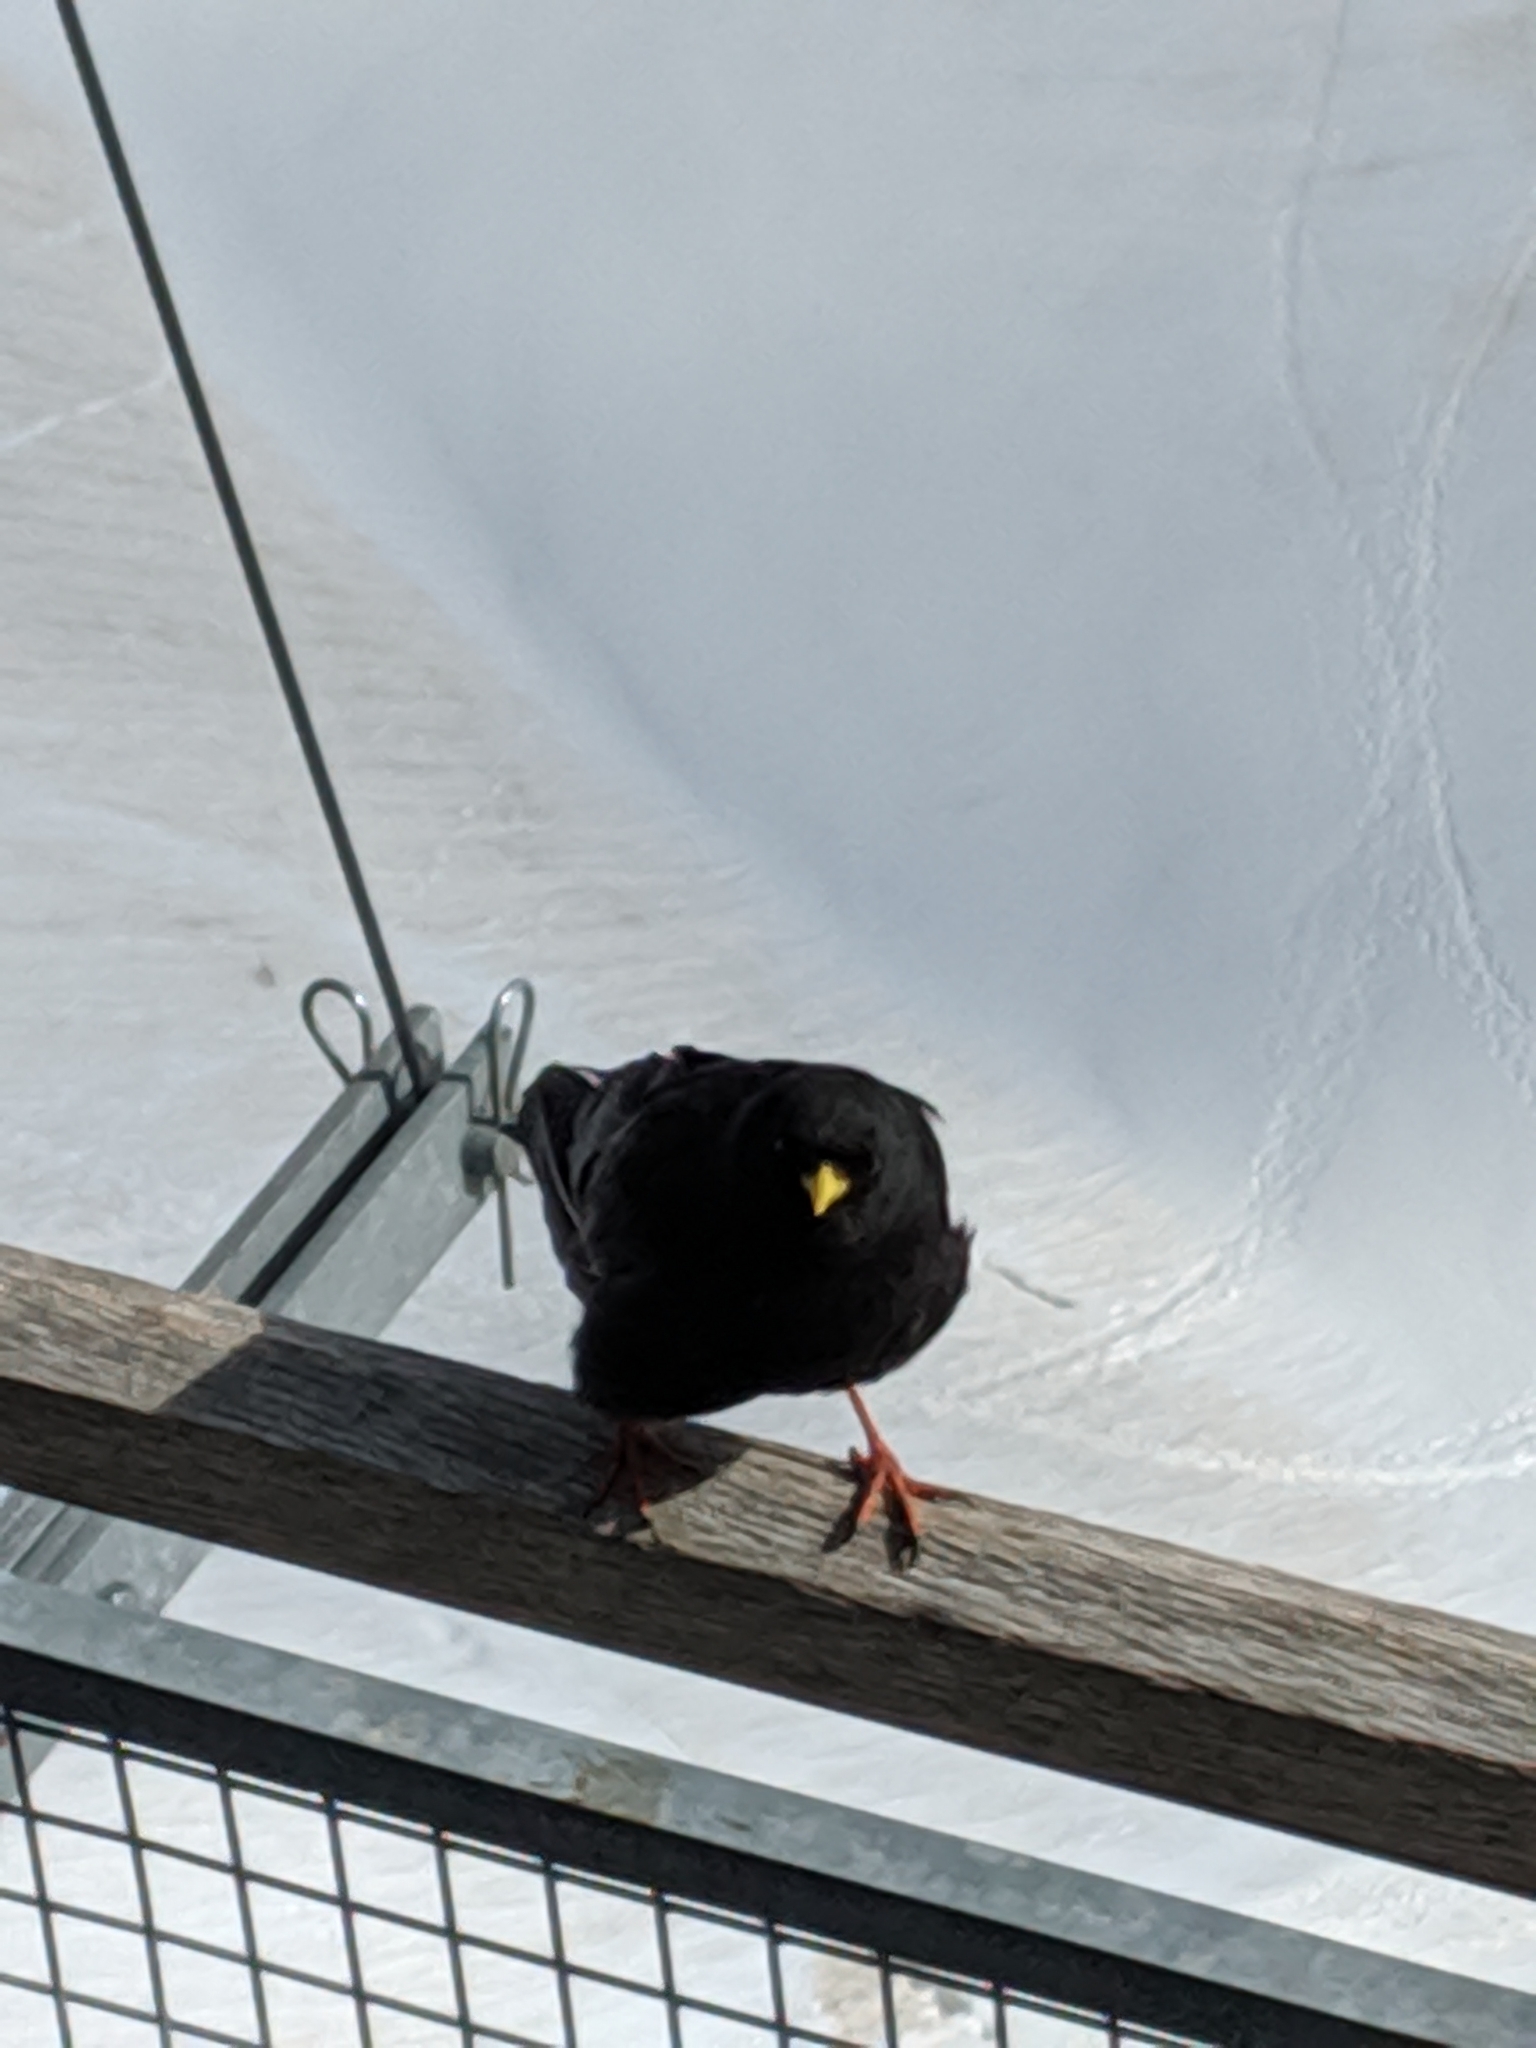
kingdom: Animalia
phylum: Chordata
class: Aves
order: Passeriformes
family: Corvidae
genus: Pyrrhocorax
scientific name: Pyrrhocorax graculus
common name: Alpine chough
